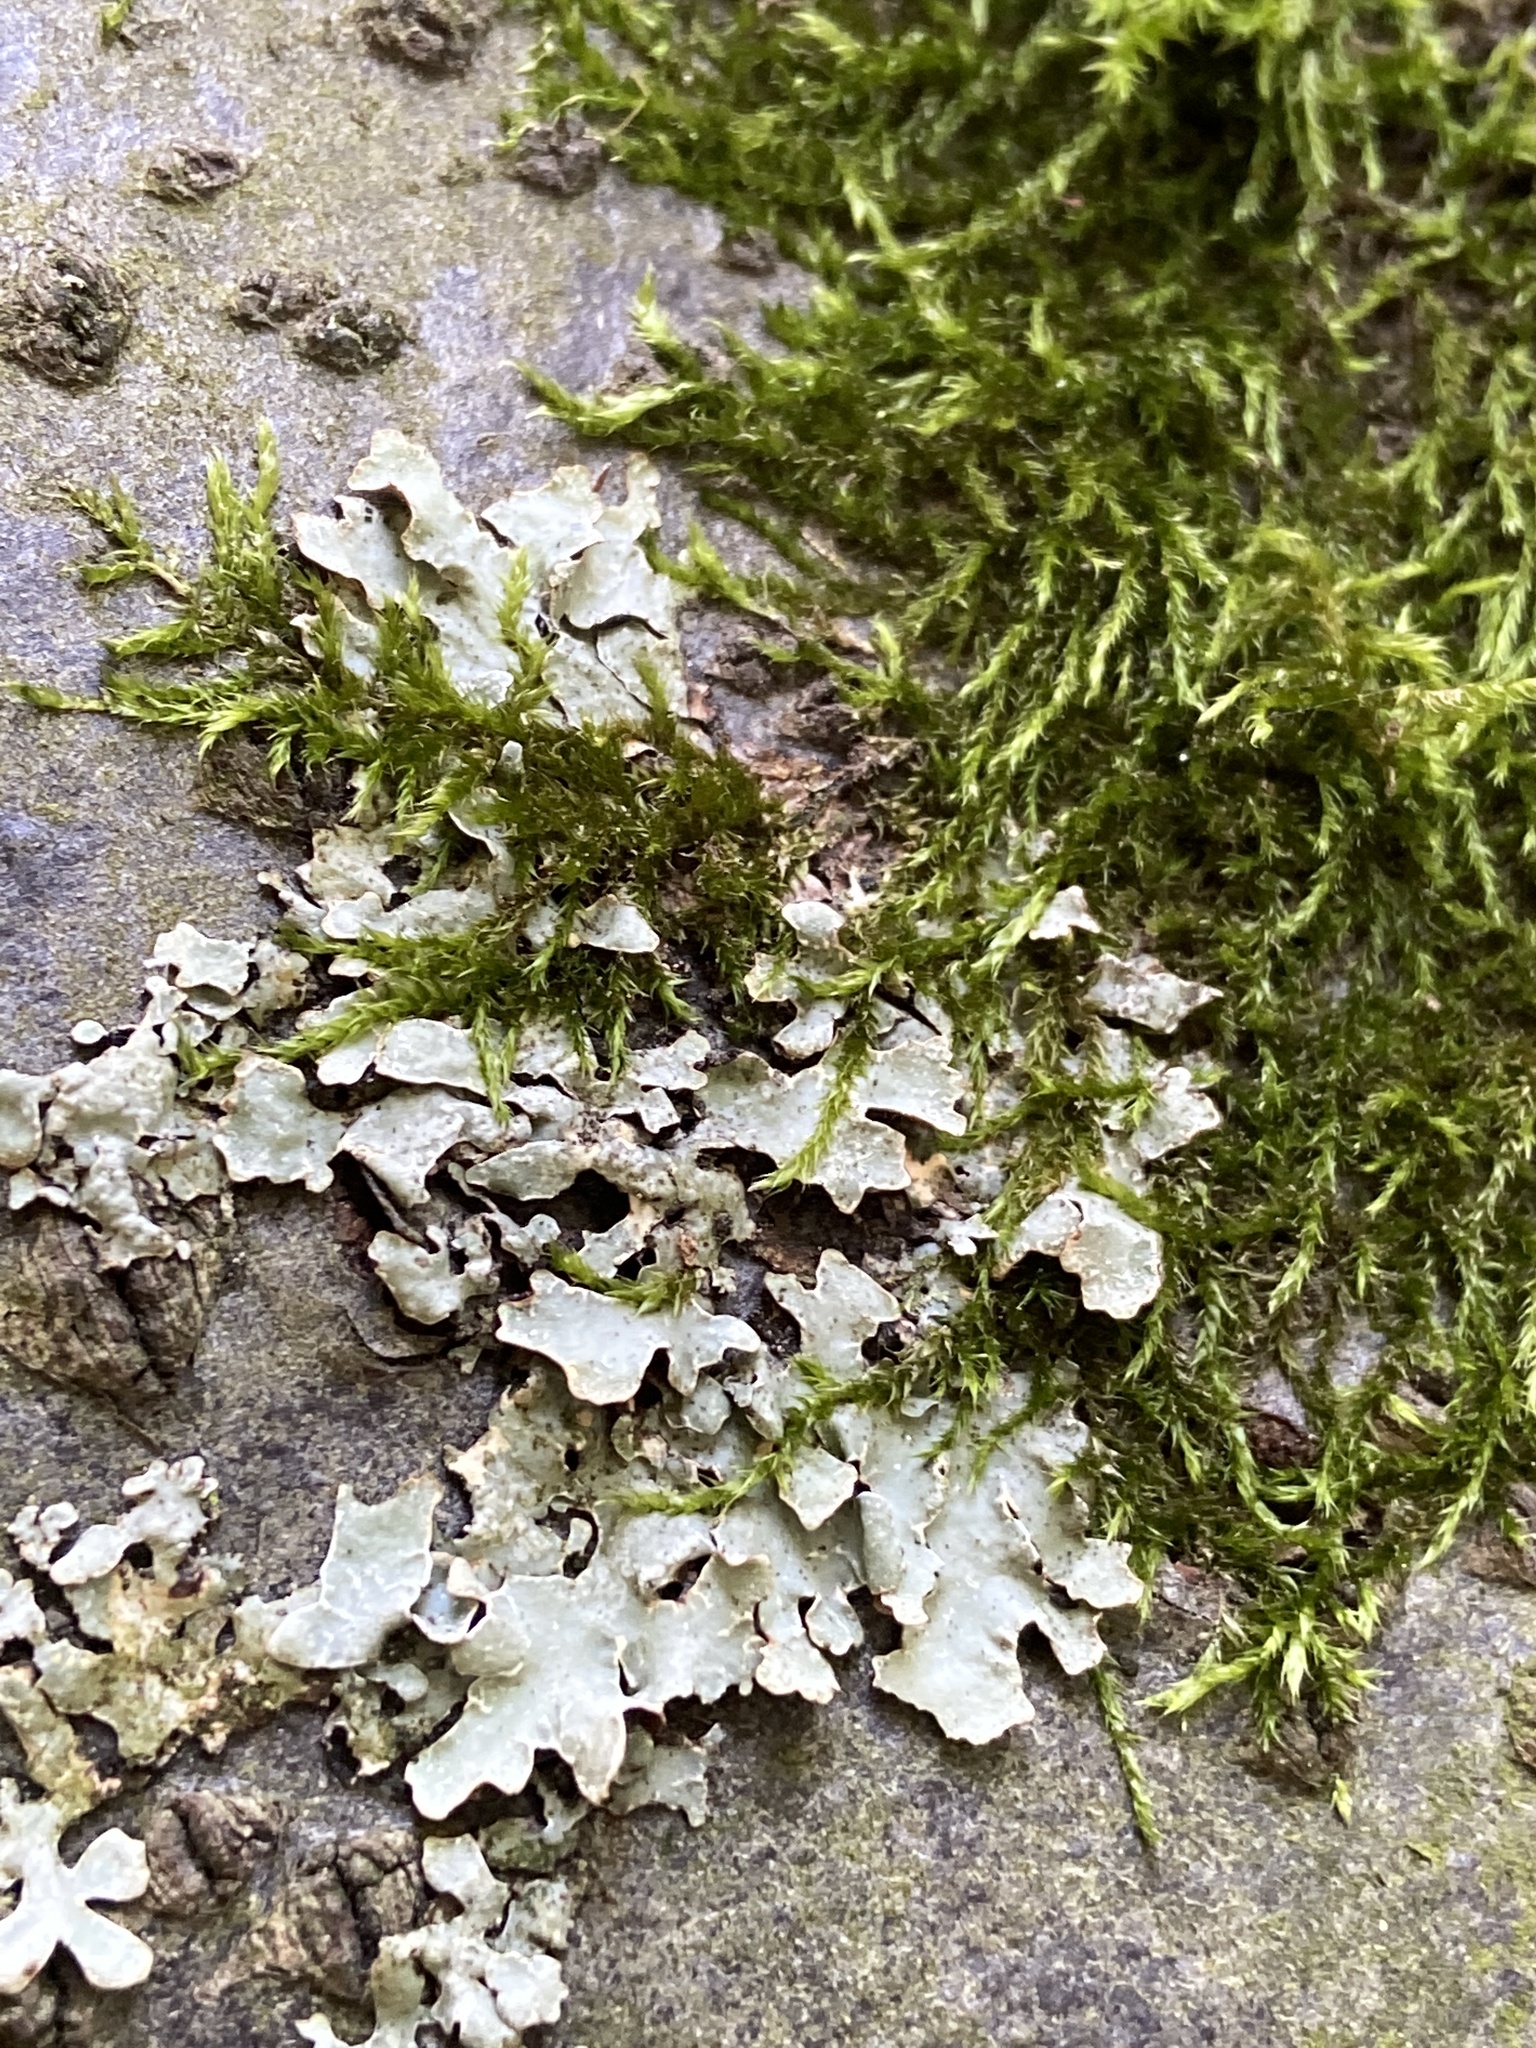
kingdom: Fungi
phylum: Ascomycota
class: Lecanoromycetes
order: Lecanorales
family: Parmeliaceae
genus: Parmelia
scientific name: Parmelia sulcata
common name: Netted shield lichen
